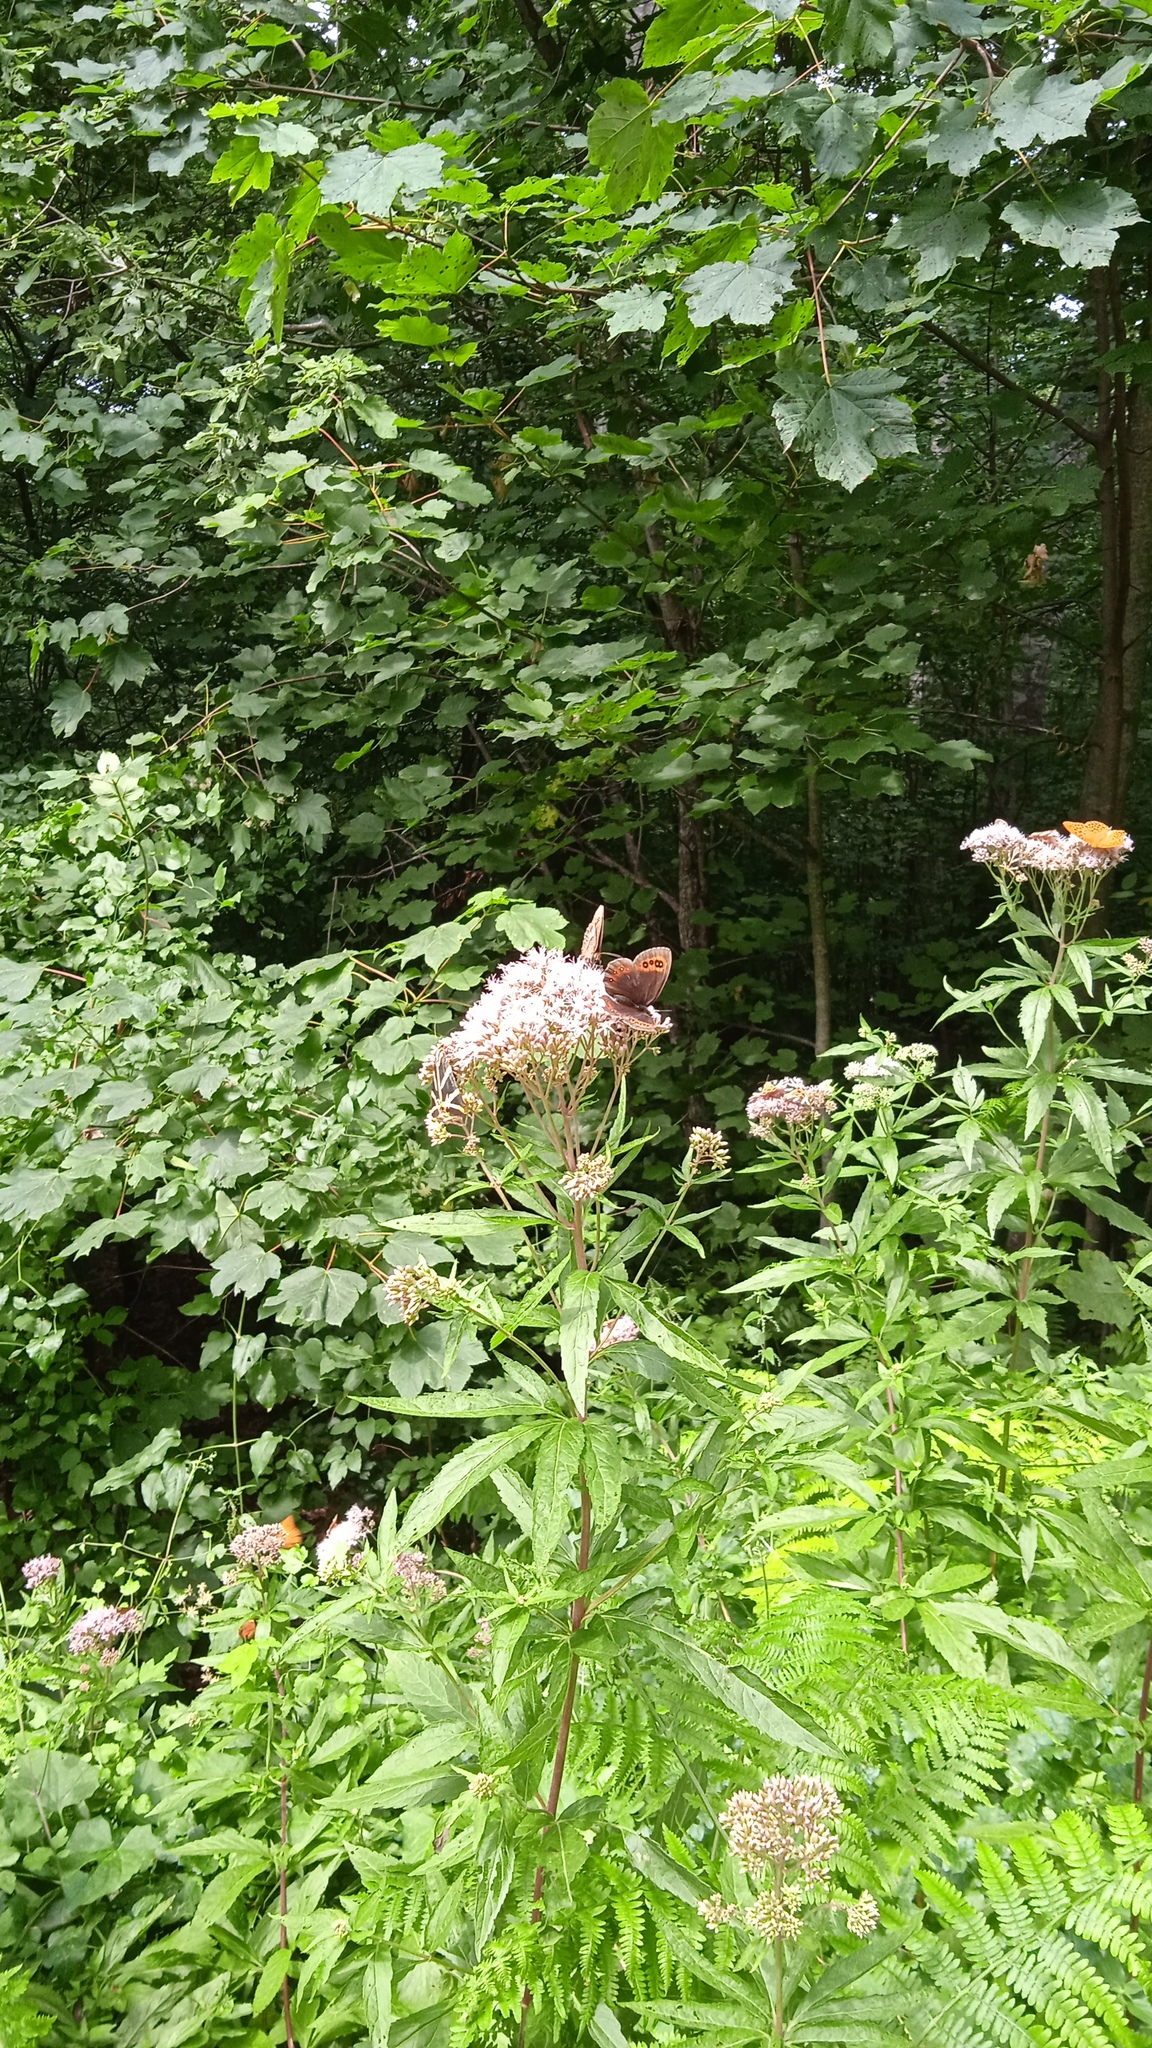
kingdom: Animalia
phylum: Arthropoda
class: Insecta
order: Lepidoptera
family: Nymphalidae
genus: Erebia
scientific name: Erebia aethiops
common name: Scotch argus
